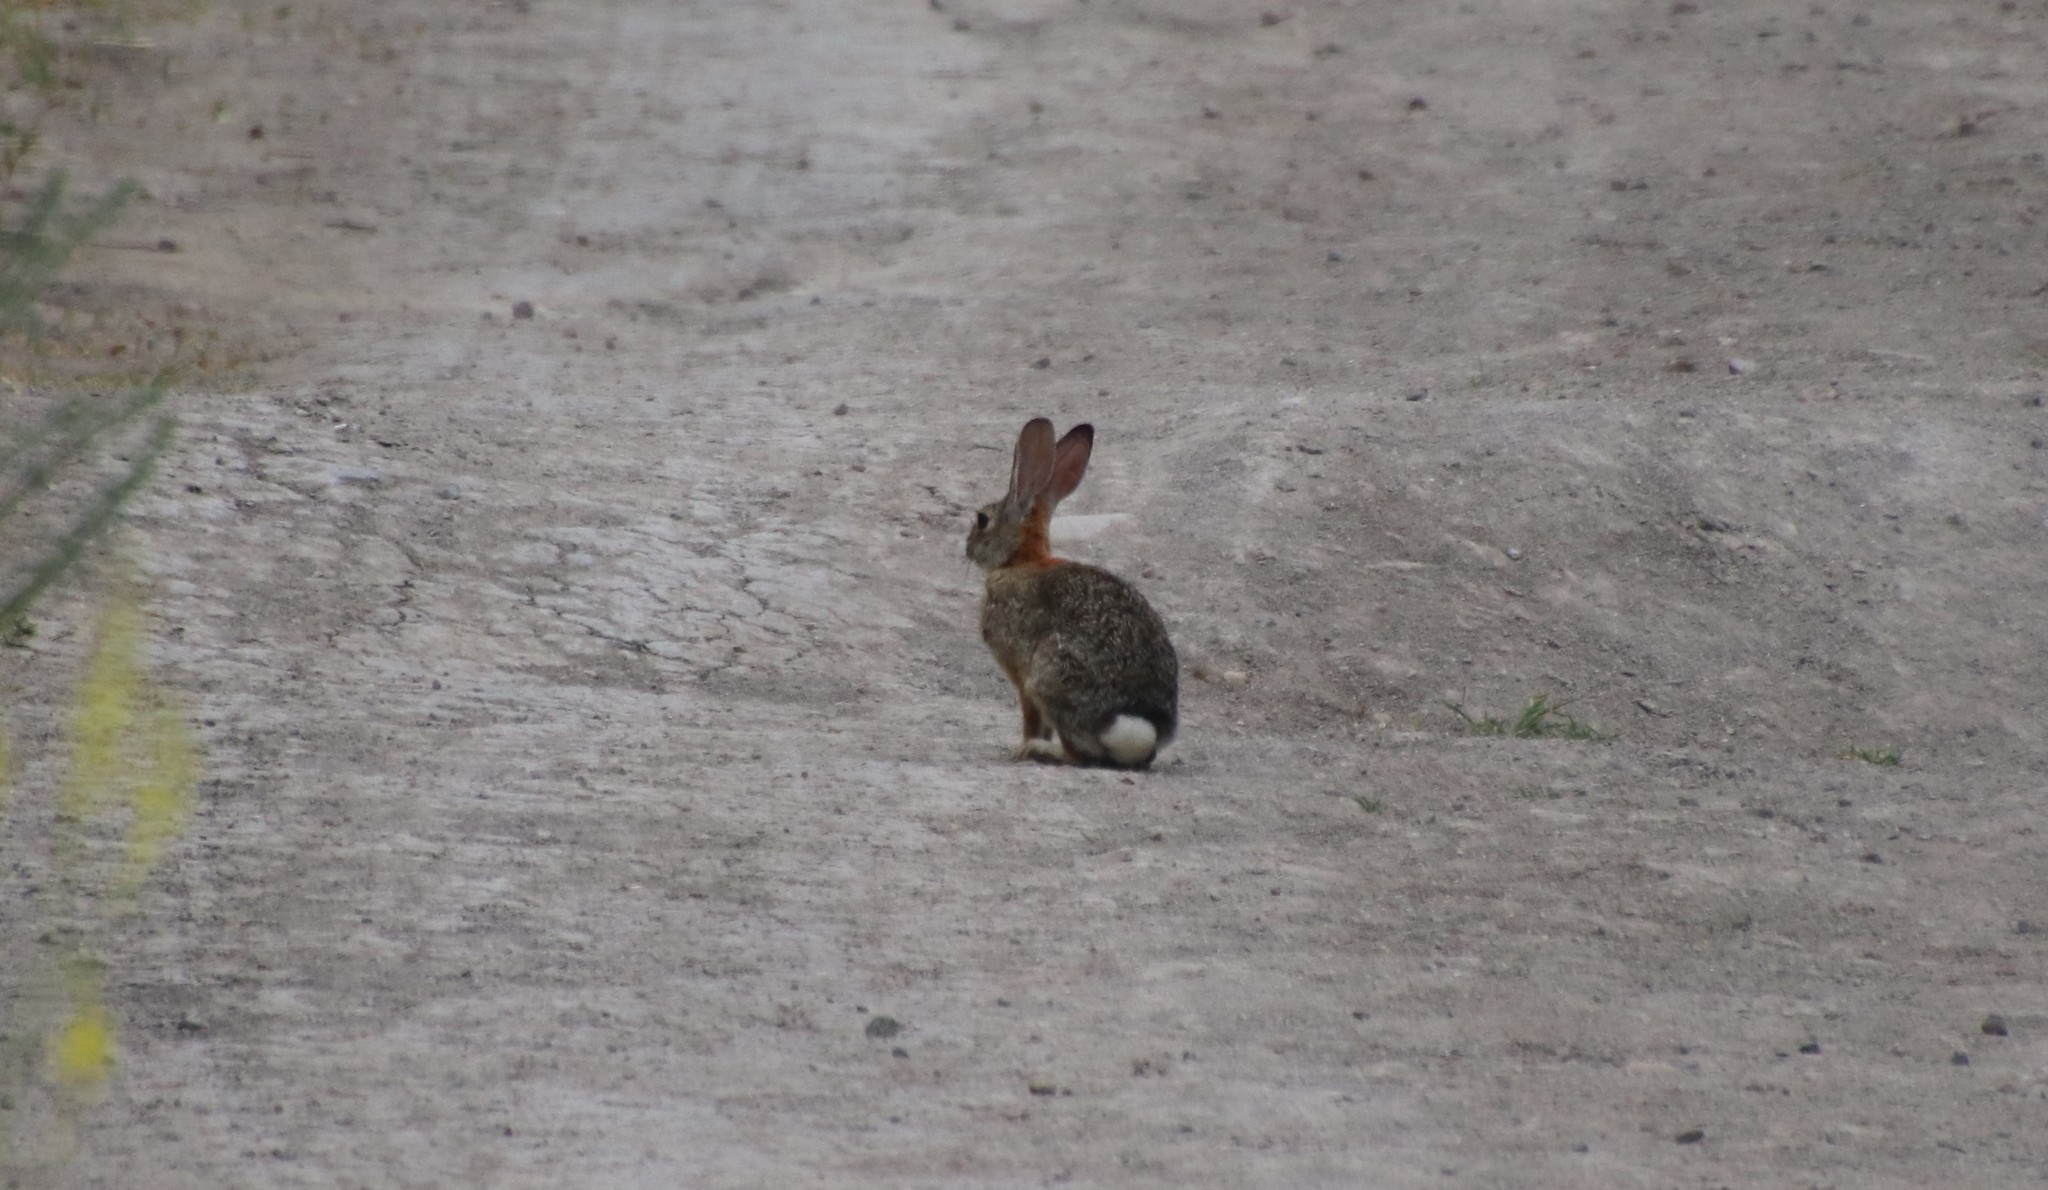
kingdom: Animalia
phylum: Chordata
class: Mammalia
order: Lagomorpha
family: Leporidae
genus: Sylvilagus
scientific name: Sylvilagus audubonii
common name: Desert cottontail
